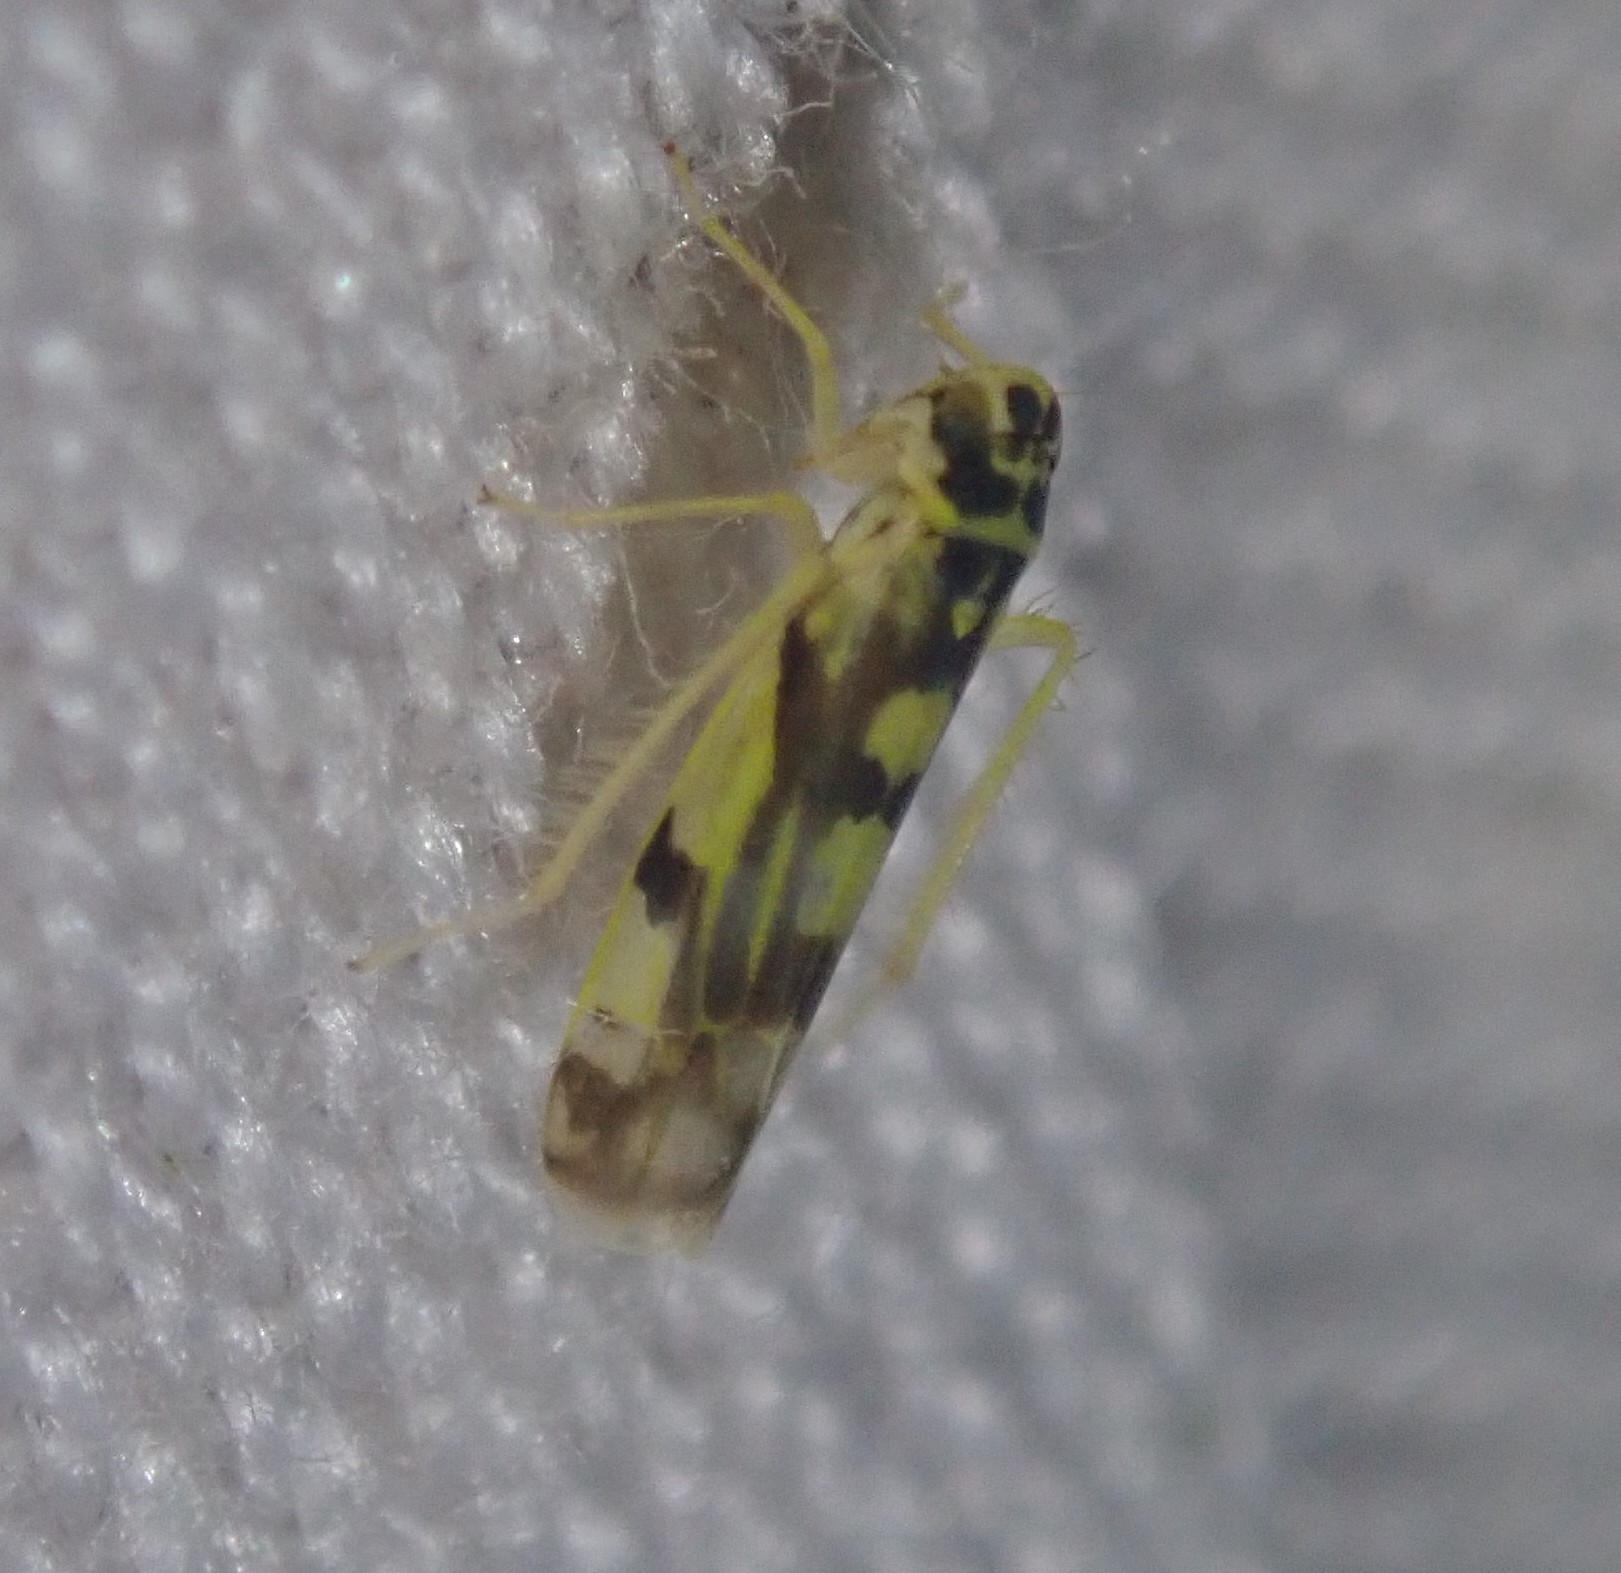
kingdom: Animalia
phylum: Arthropoda
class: Insecta
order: Hemiptera
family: Cicadellidae
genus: Eupteryx
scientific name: Eupteryx aurata
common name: Leafhopper
